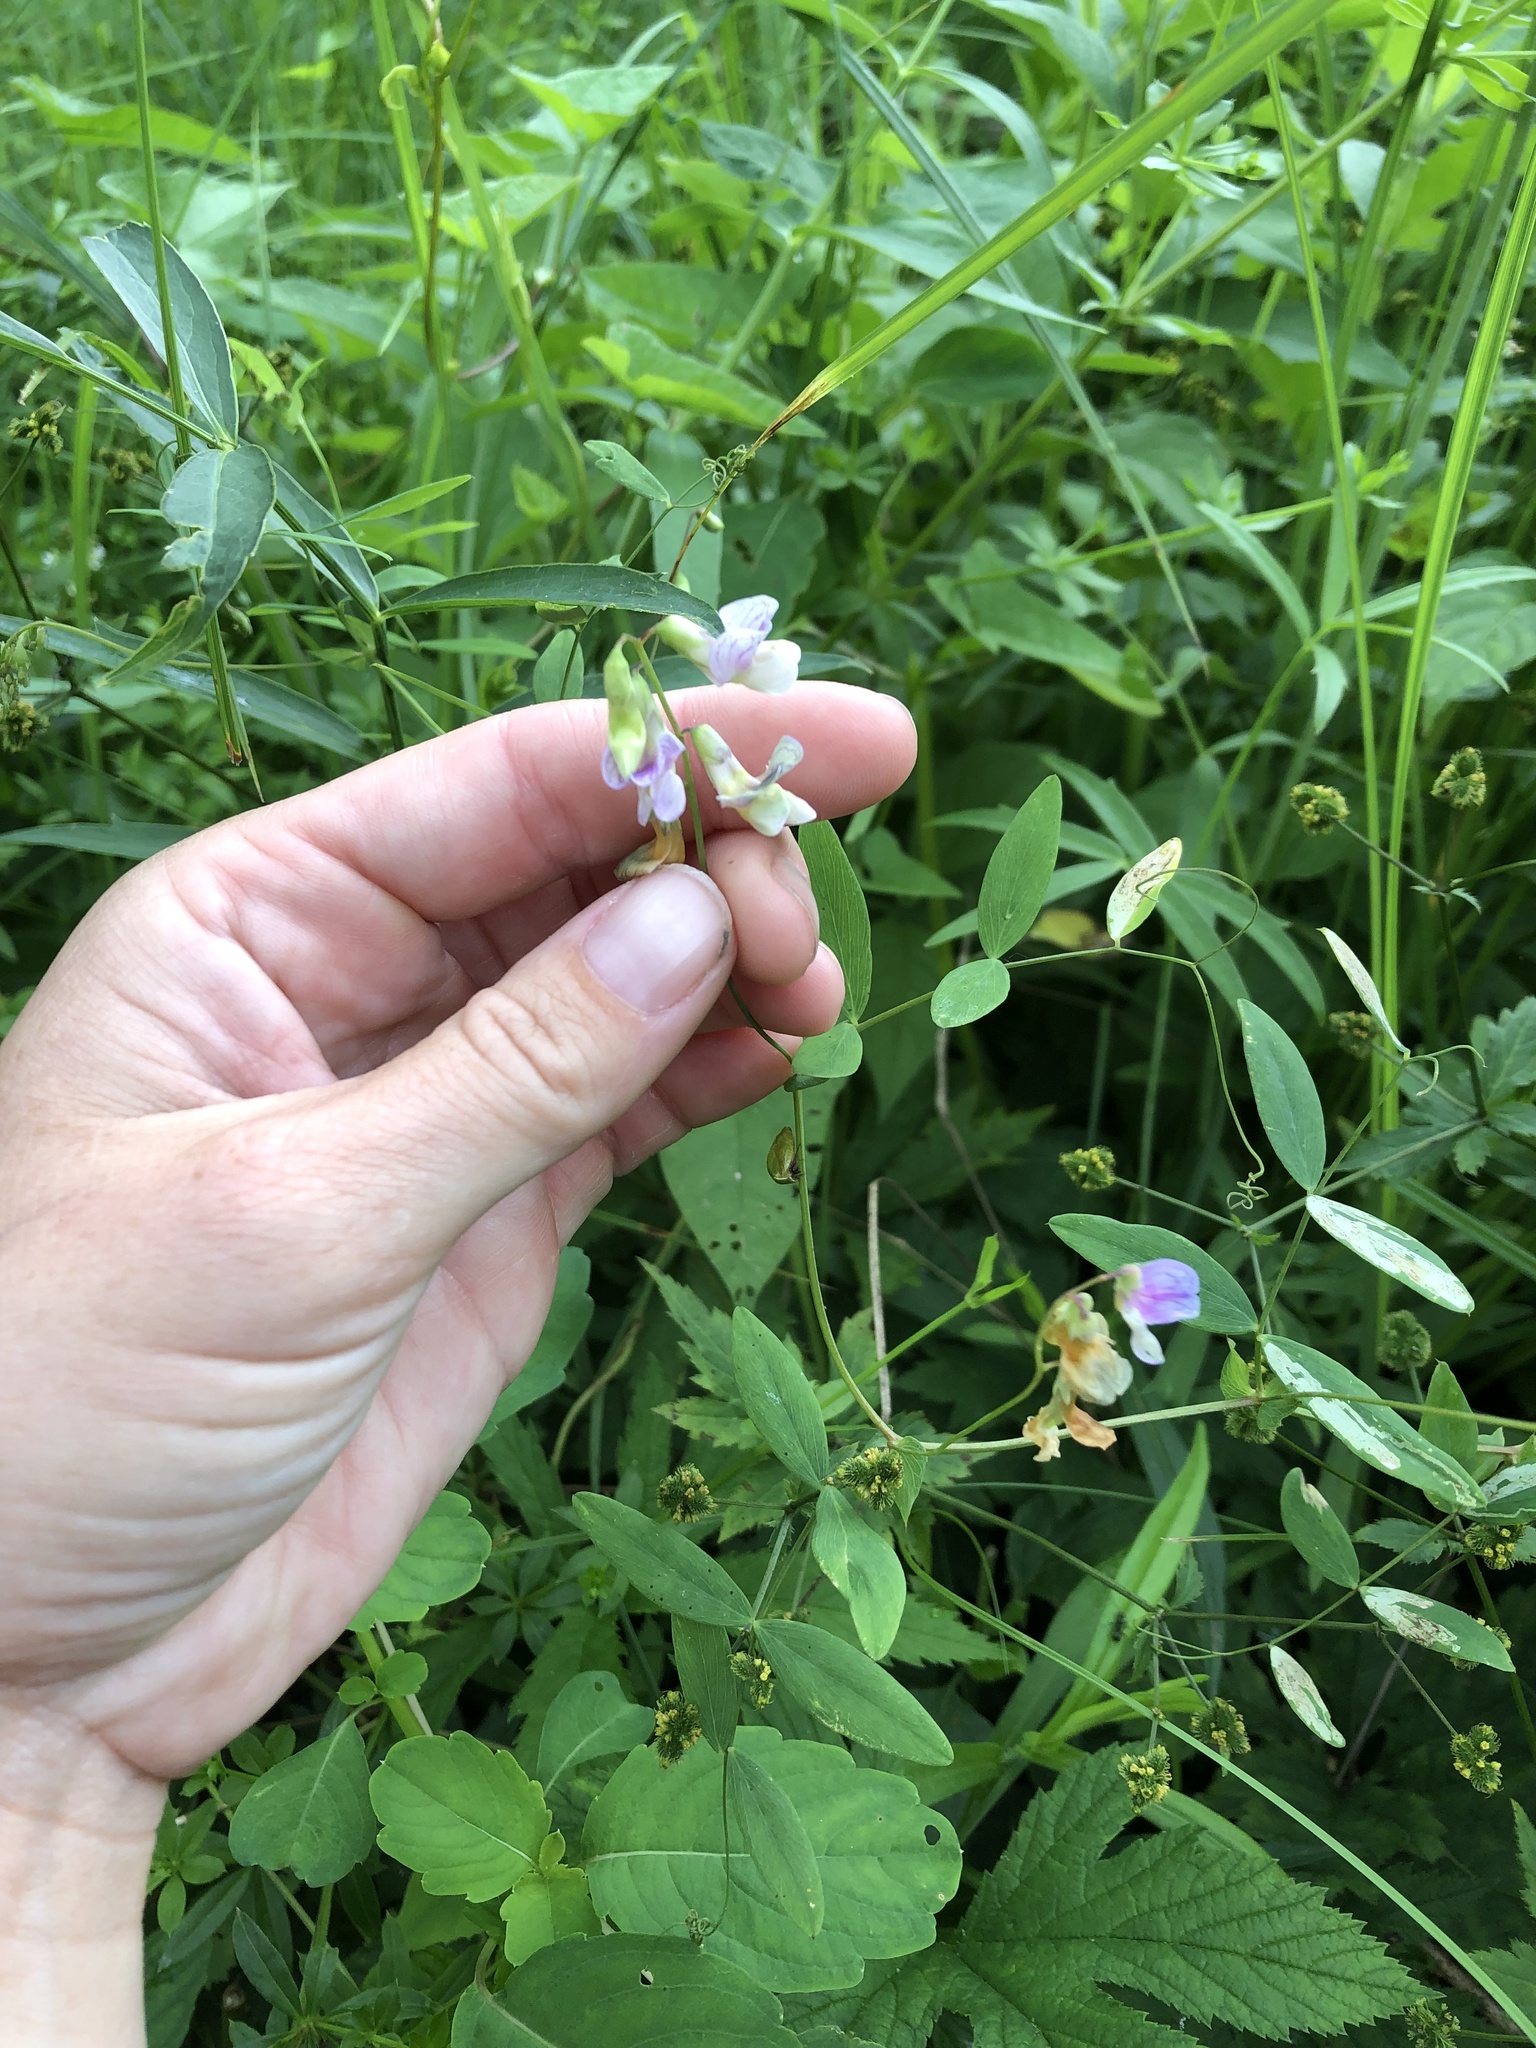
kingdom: Plantae
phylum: Tracheophyta
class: Magnoliopsida
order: Fabales
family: Fabaceae
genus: Lathyrus
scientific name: Lathyrus palustris
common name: Marsh pea
